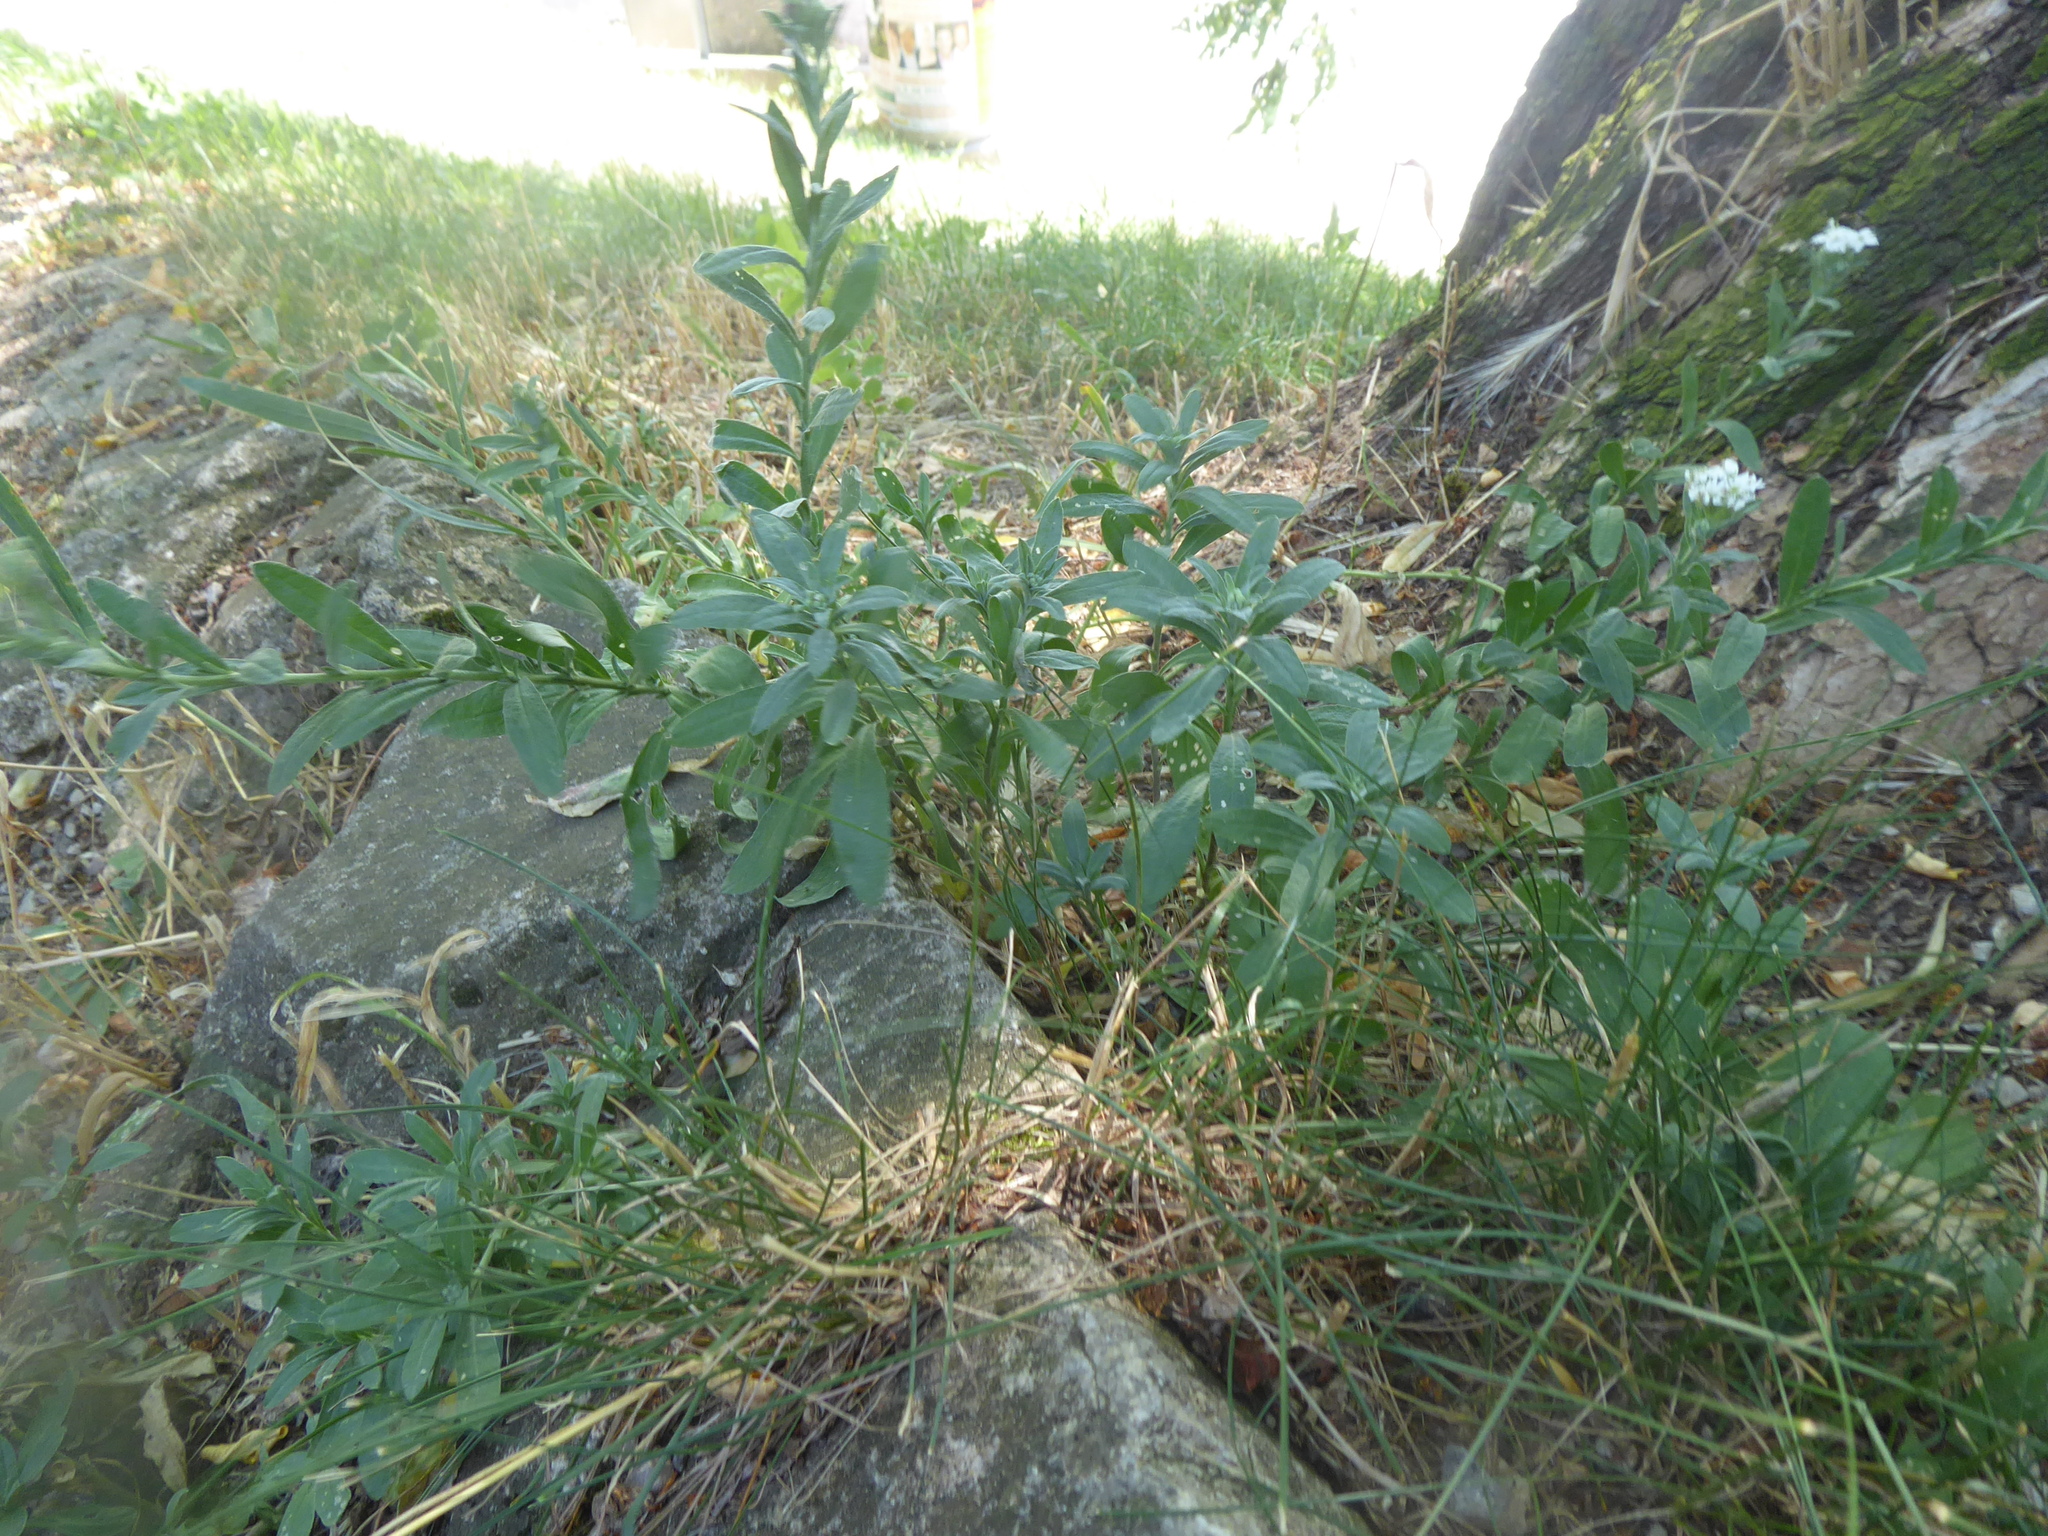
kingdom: Plantae
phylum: Tracheophyta
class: Magnoliopsida
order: Brassicales
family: Brassicaceae
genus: Berteroa
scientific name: Berteroa incana
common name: Hoary alison
